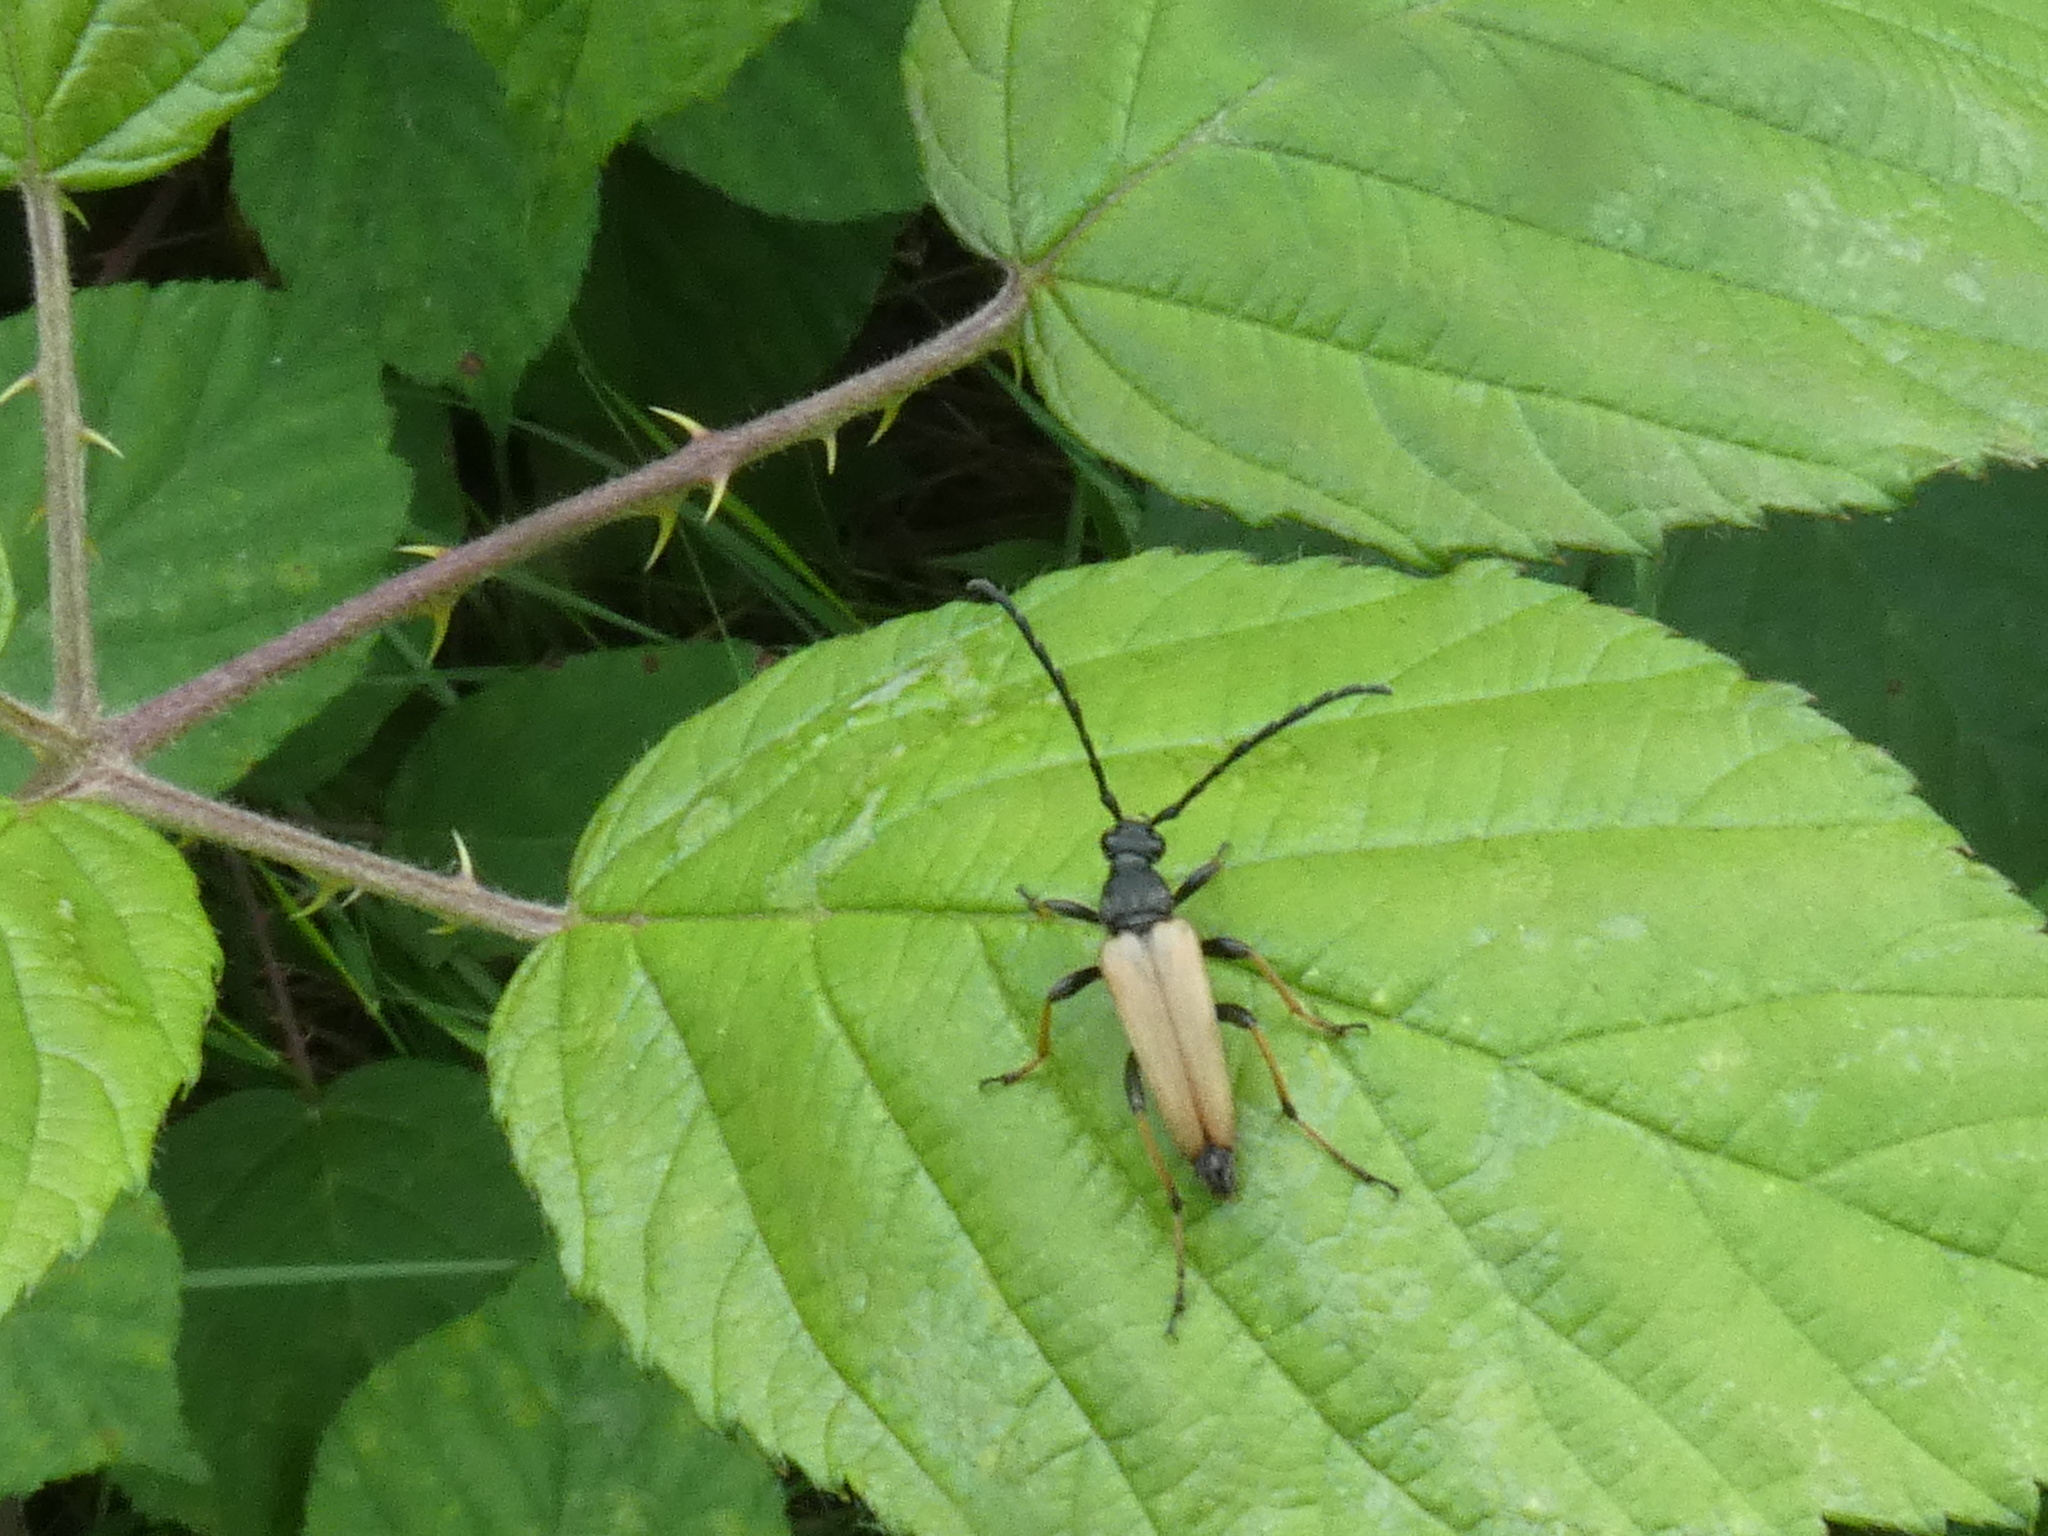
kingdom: Animalia
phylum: Arthropoda
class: Insecta
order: Coleoptera
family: Cerambycidae
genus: Stictoleptura
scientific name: Stictoleptura rubra
